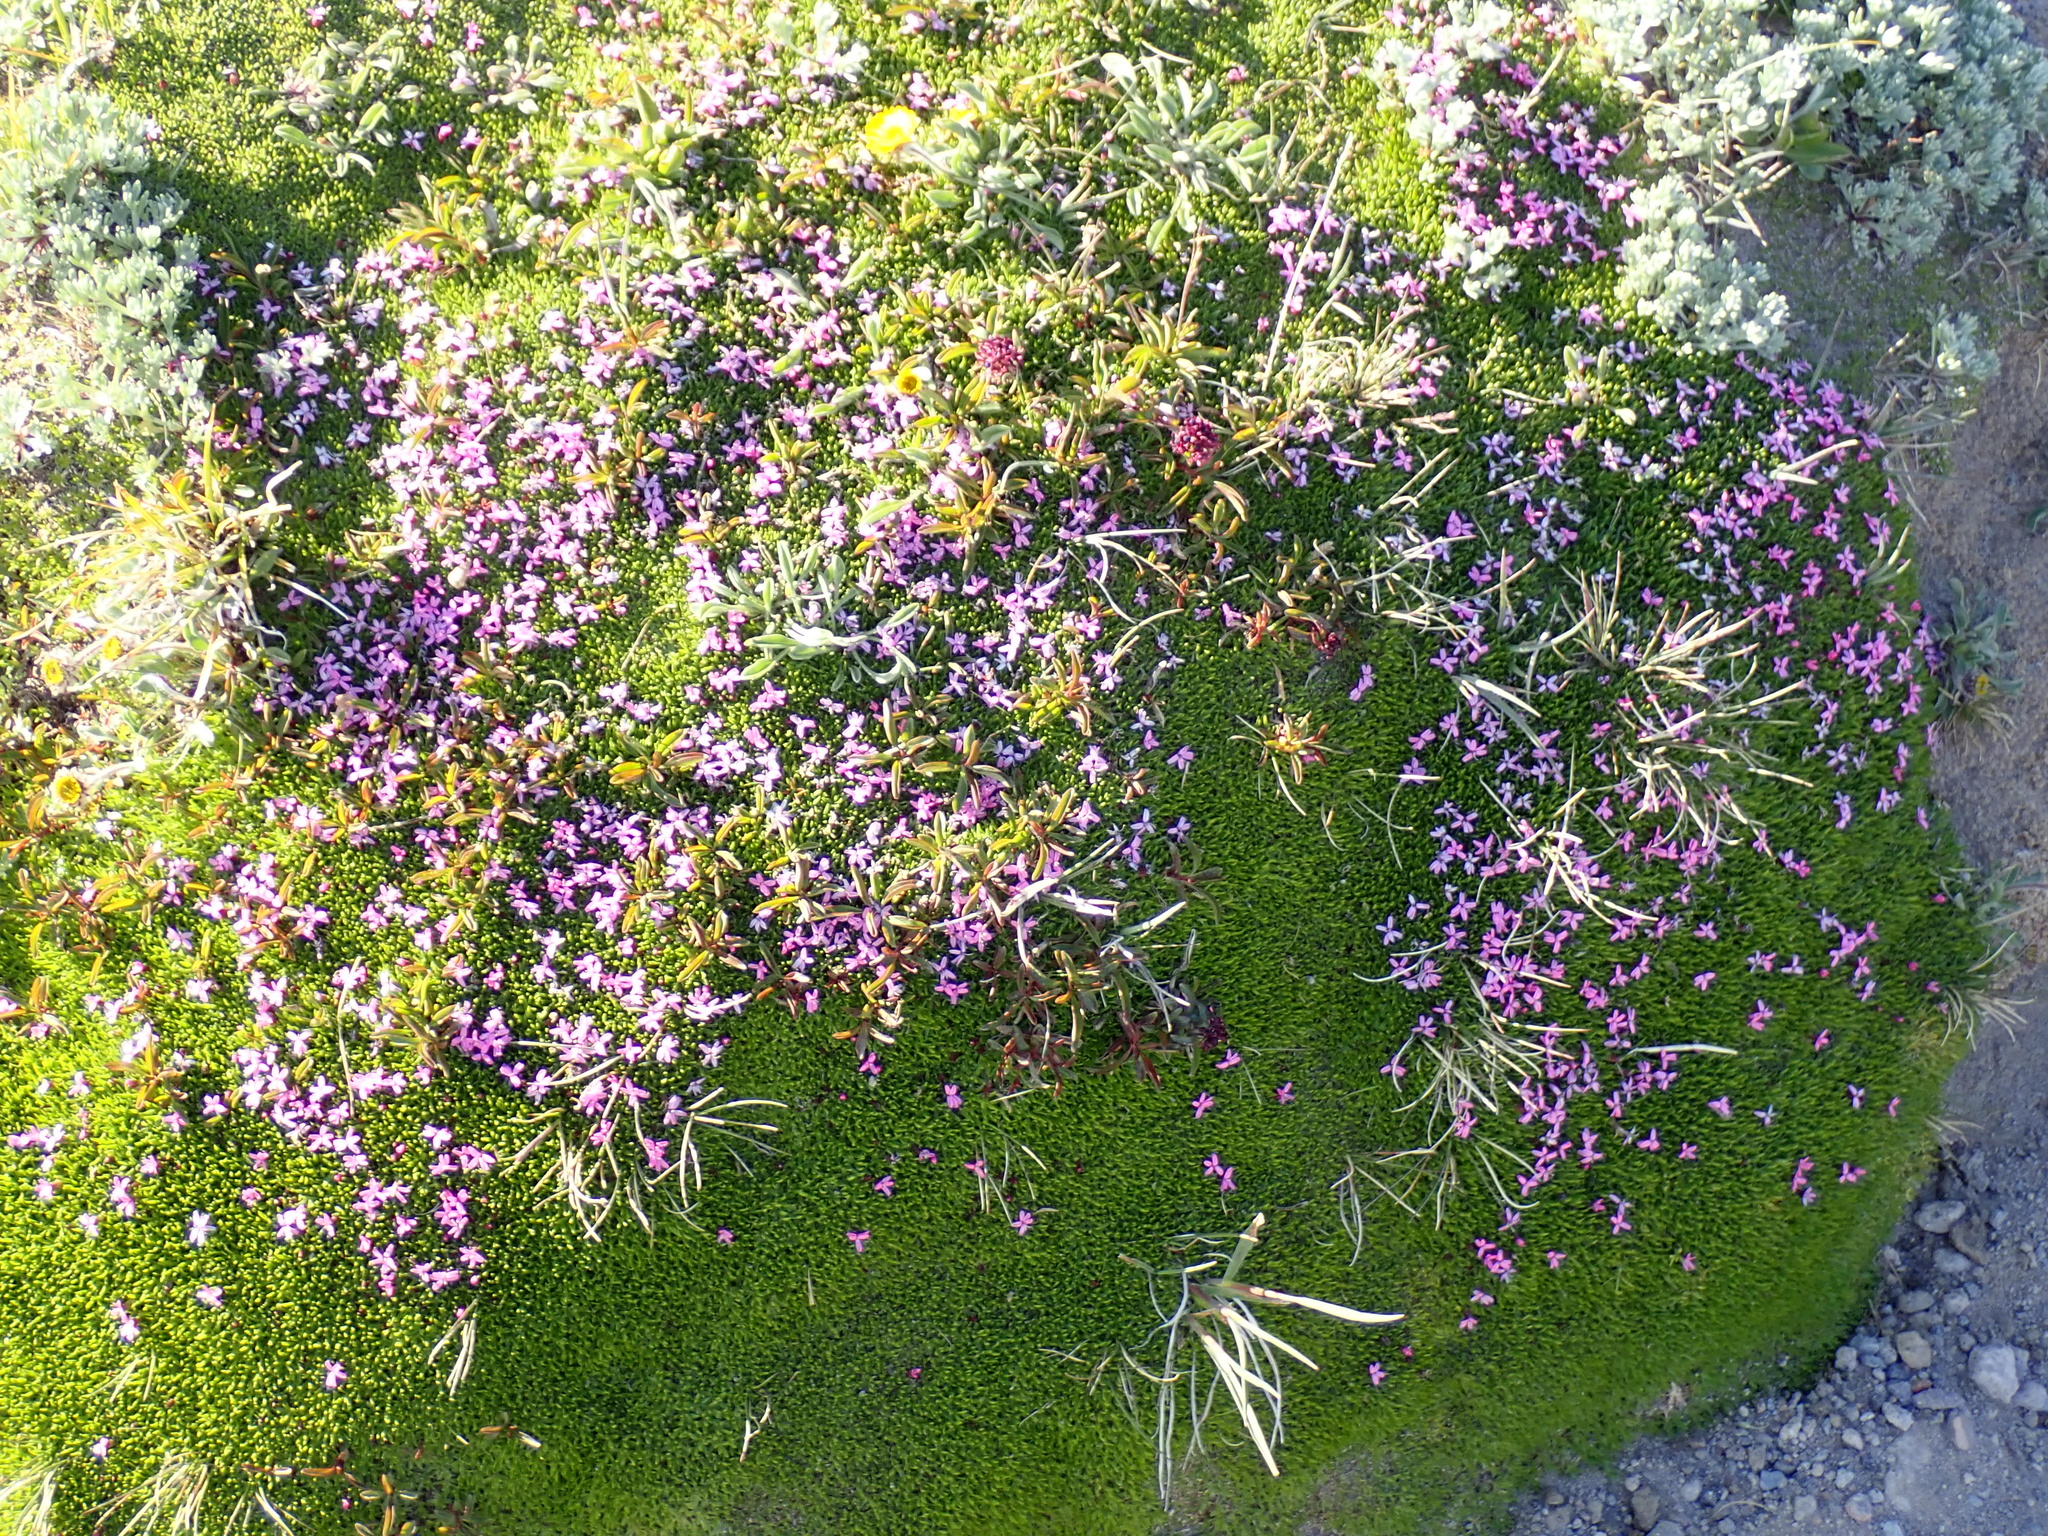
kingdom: Plantae
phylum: Tracheophyta
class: Magnoliopsida
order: Caryophyllales
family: Caryophyllaceae
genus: Silene
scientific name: Silene acaulis
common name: Moss campion
